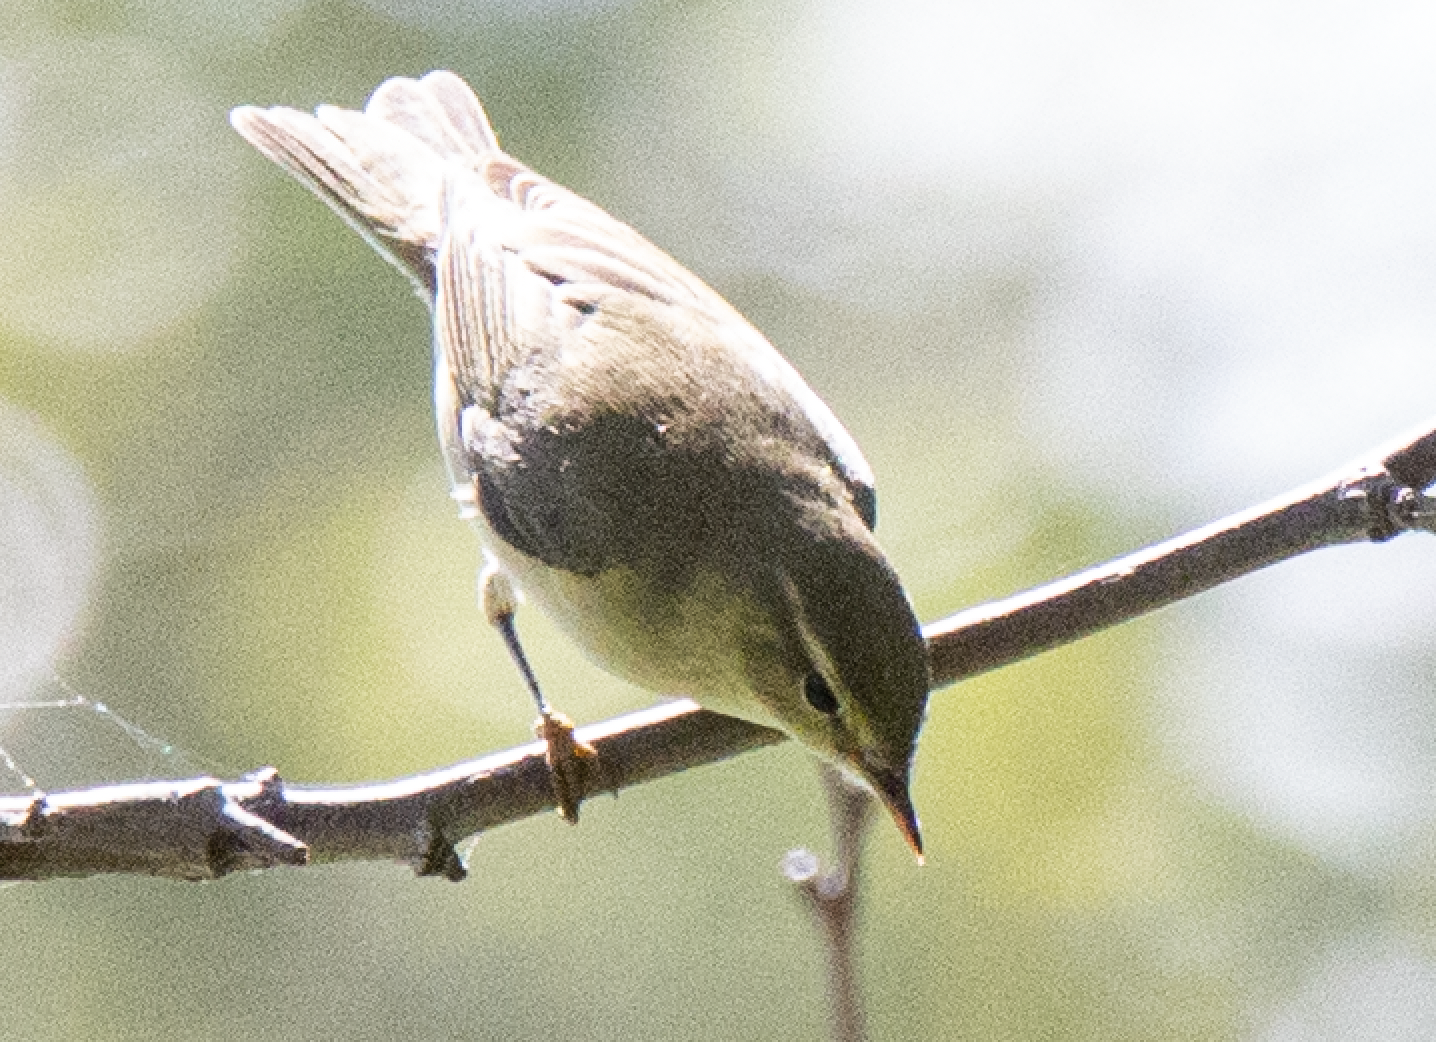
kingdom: Animalia
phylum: Chordata
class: Aves
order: Passeriformes
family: Phylloscopidae
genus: Phylloscopus
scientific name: Phylloscopus trochilus
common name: Willow warbler
